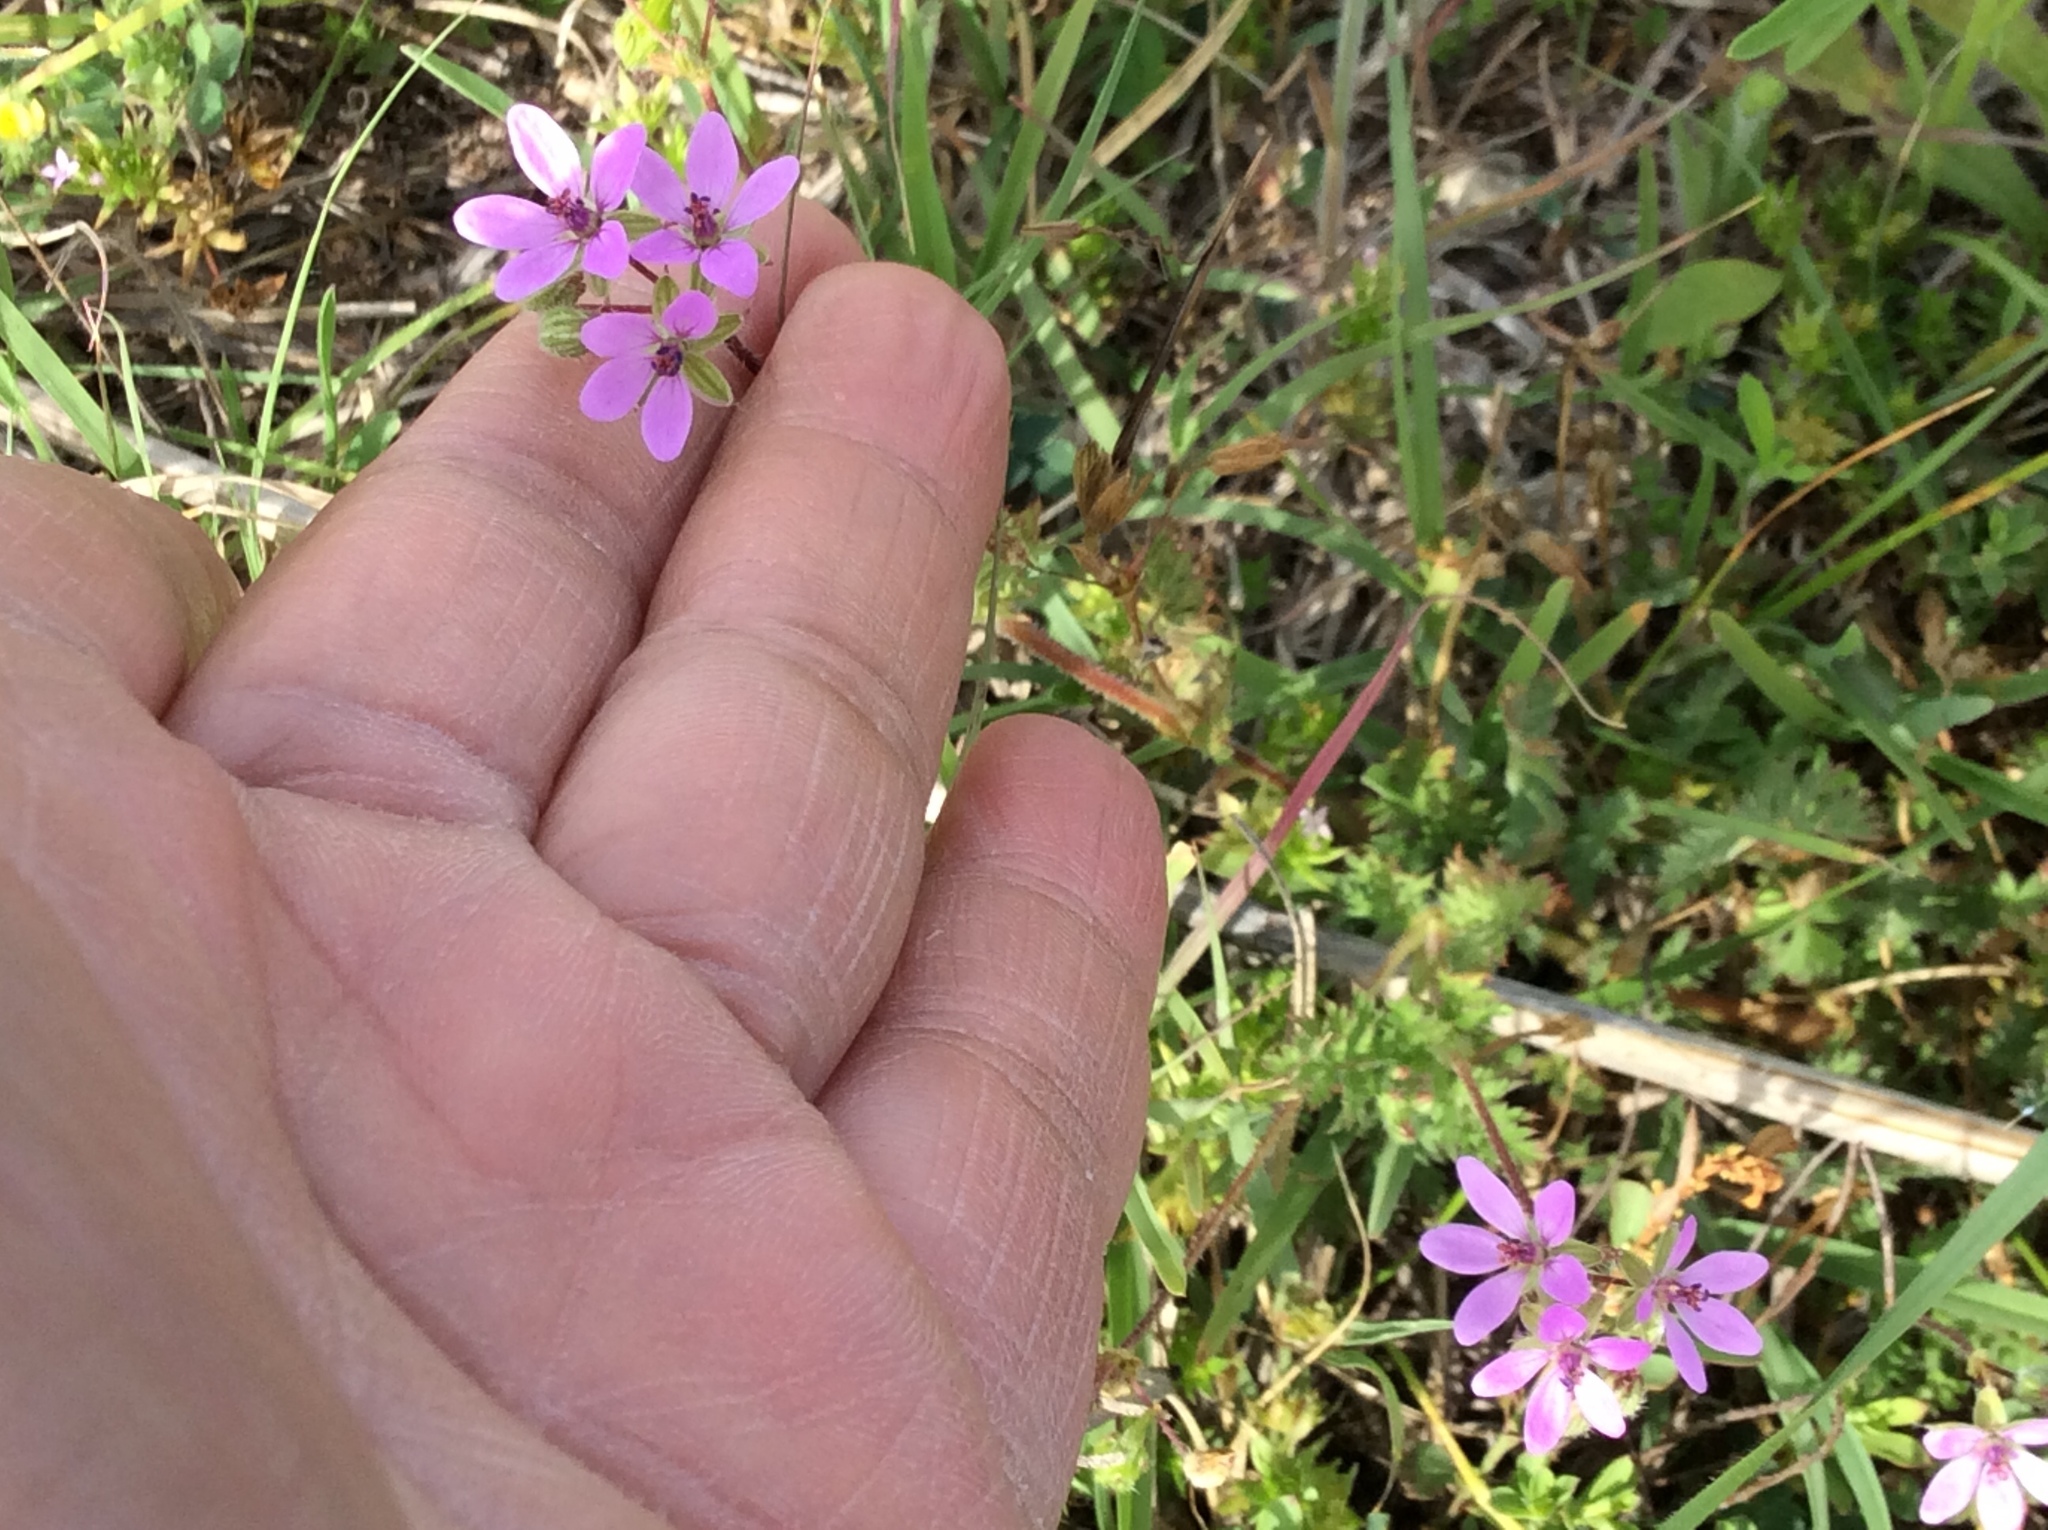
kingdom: Plantae
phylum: Tracheophyta
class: Magnoliopsida
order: Geraniales
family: Geraniaceae
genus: Erodium
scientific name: Erodium cicutarium
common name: Common stork's-bill
